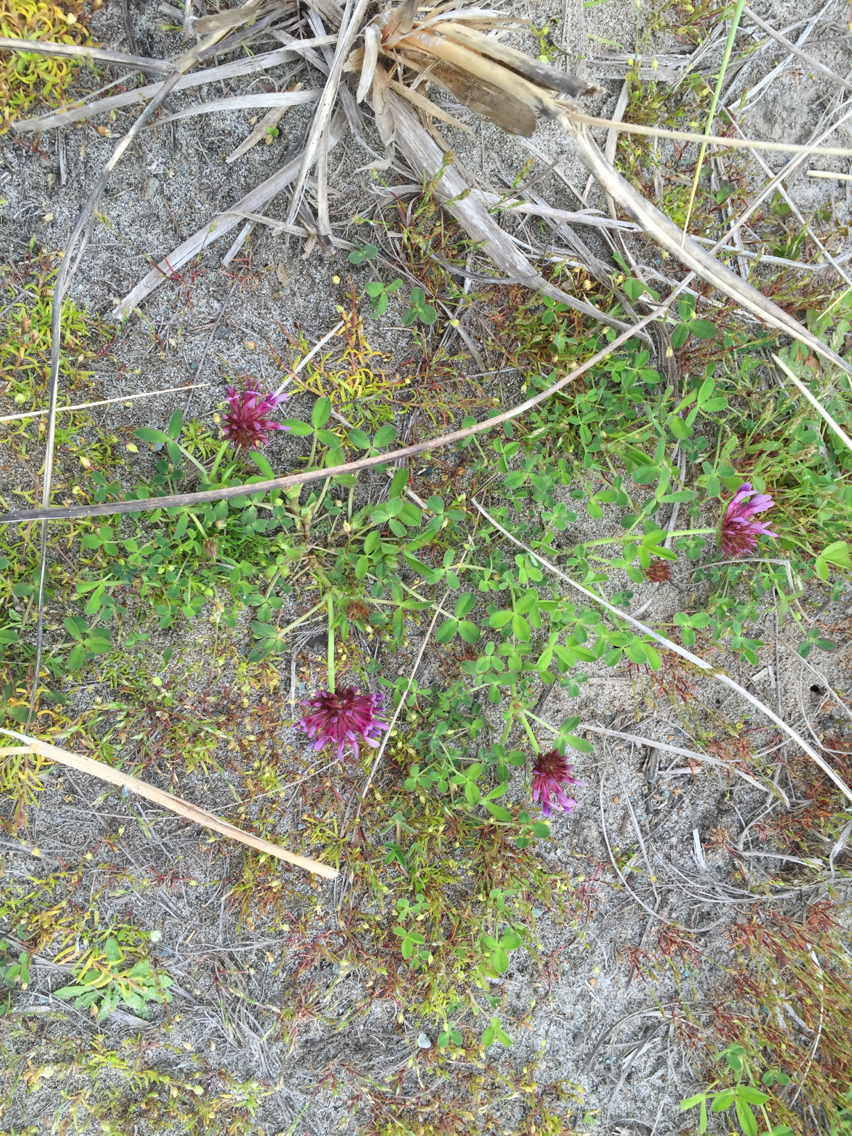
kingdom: Plantae
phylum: Tracheophyta
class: Magnoliopsida
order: Fabales
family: Fabaceae
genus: Trifolium
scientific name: Trifolium wormskioldii
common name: Springbank clover
